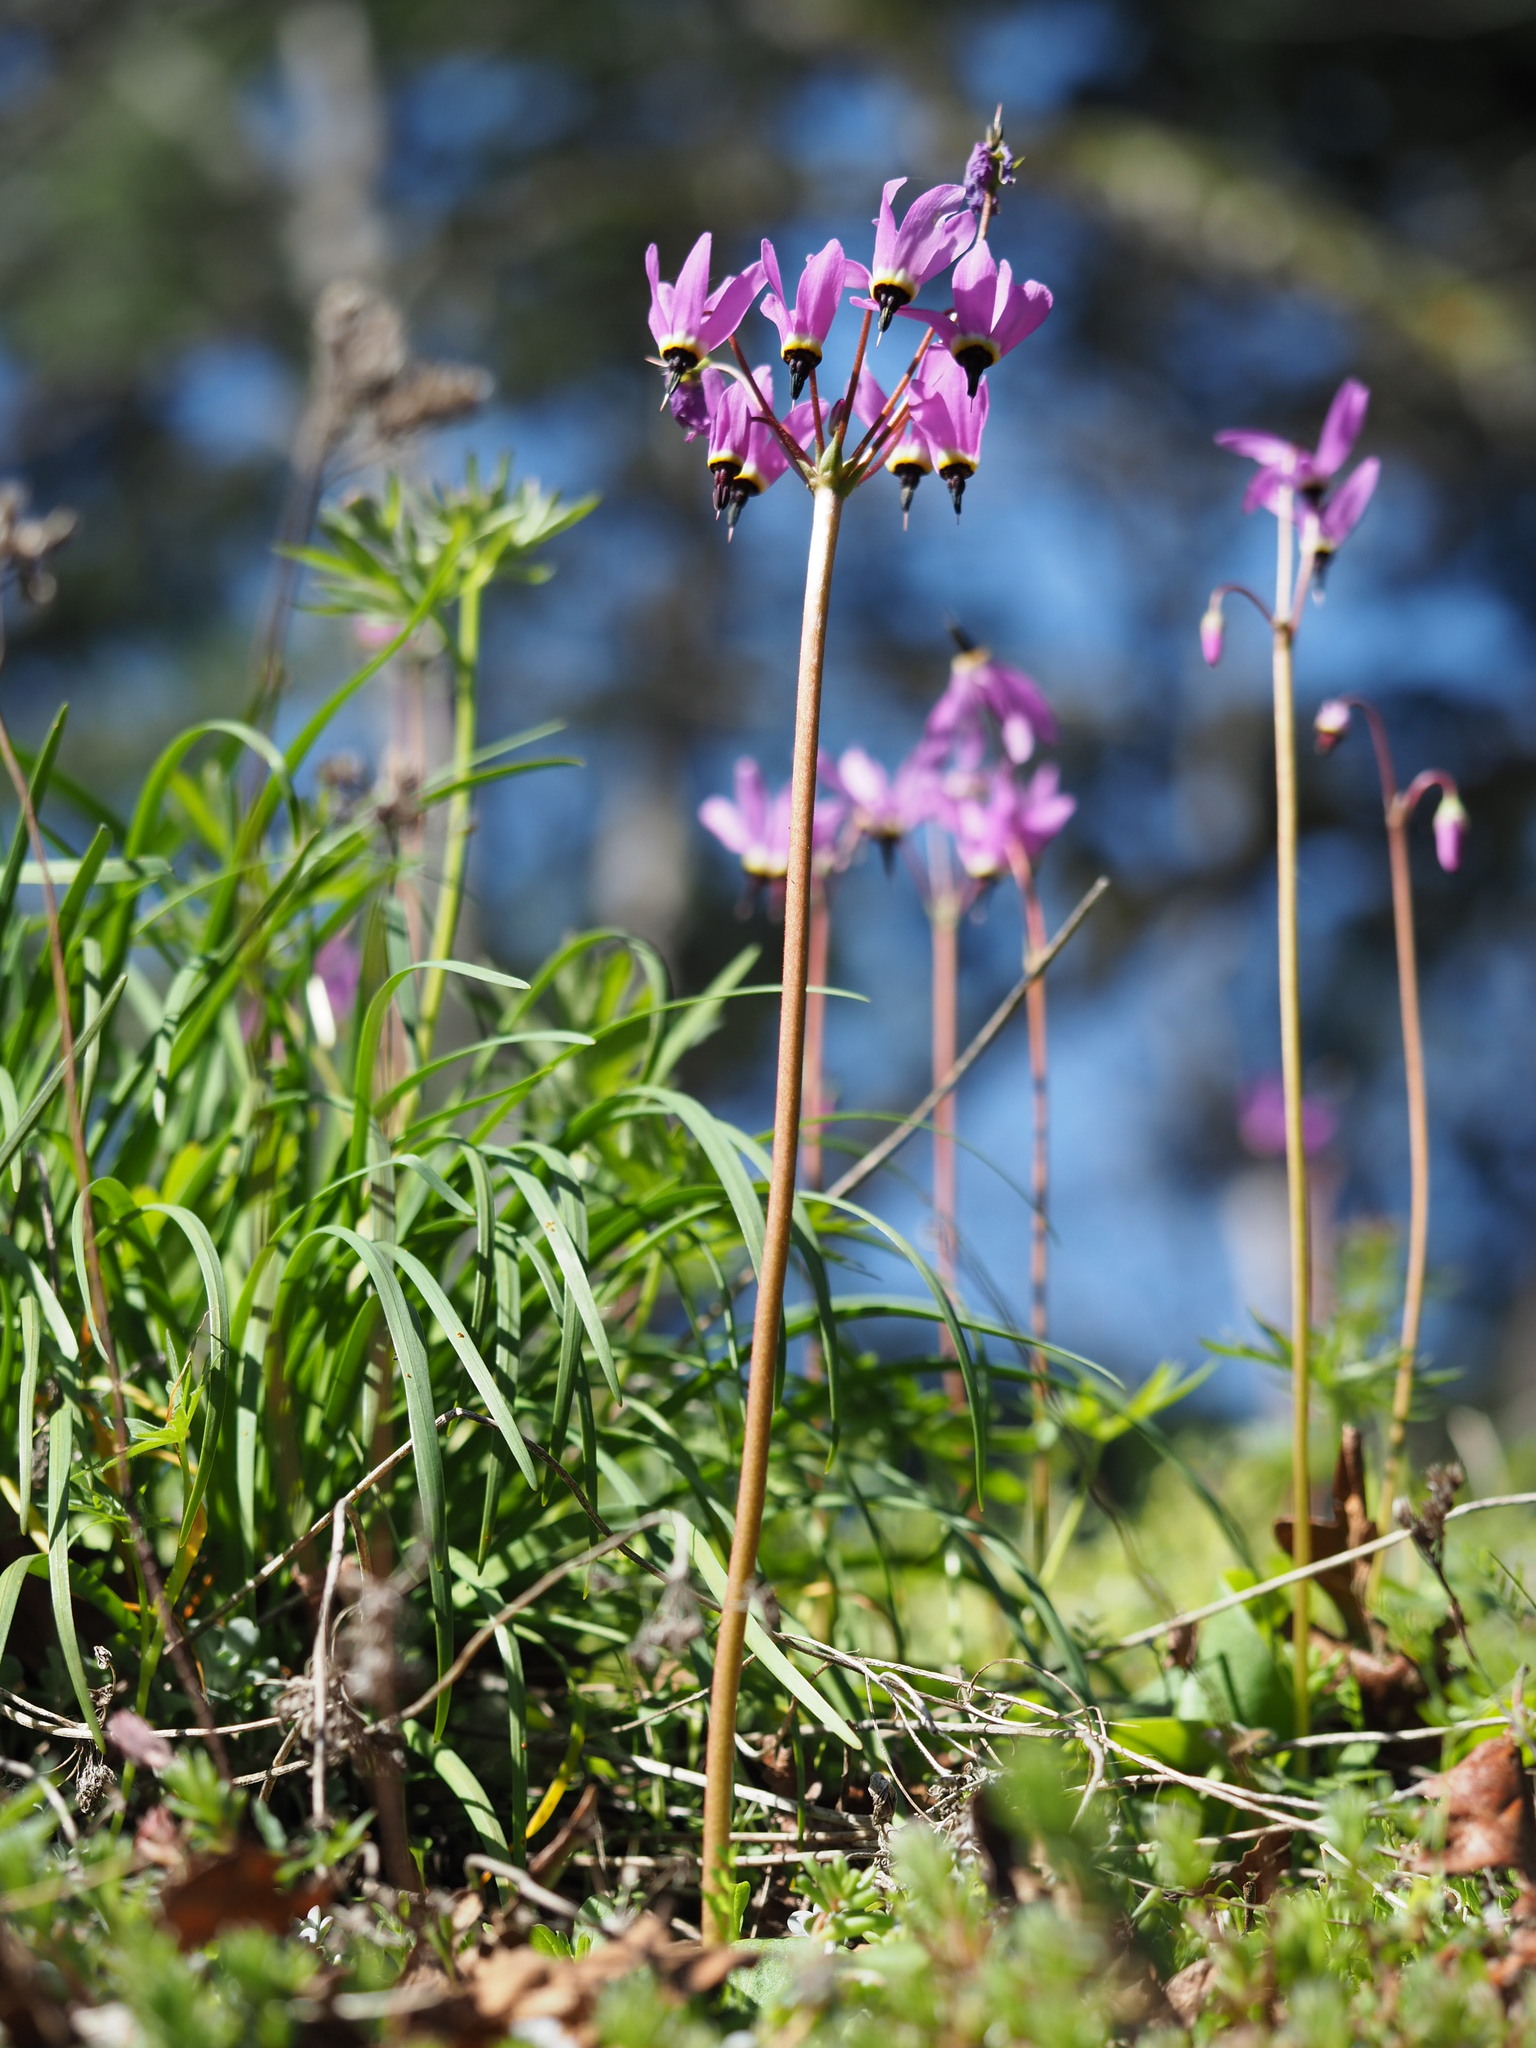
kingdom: Plantae
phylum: Tracheophyta
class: Magnoliopsida
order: Ericales
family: Primulaceae
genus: Dodecatheon
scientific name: Dodecatheon hendersonii
